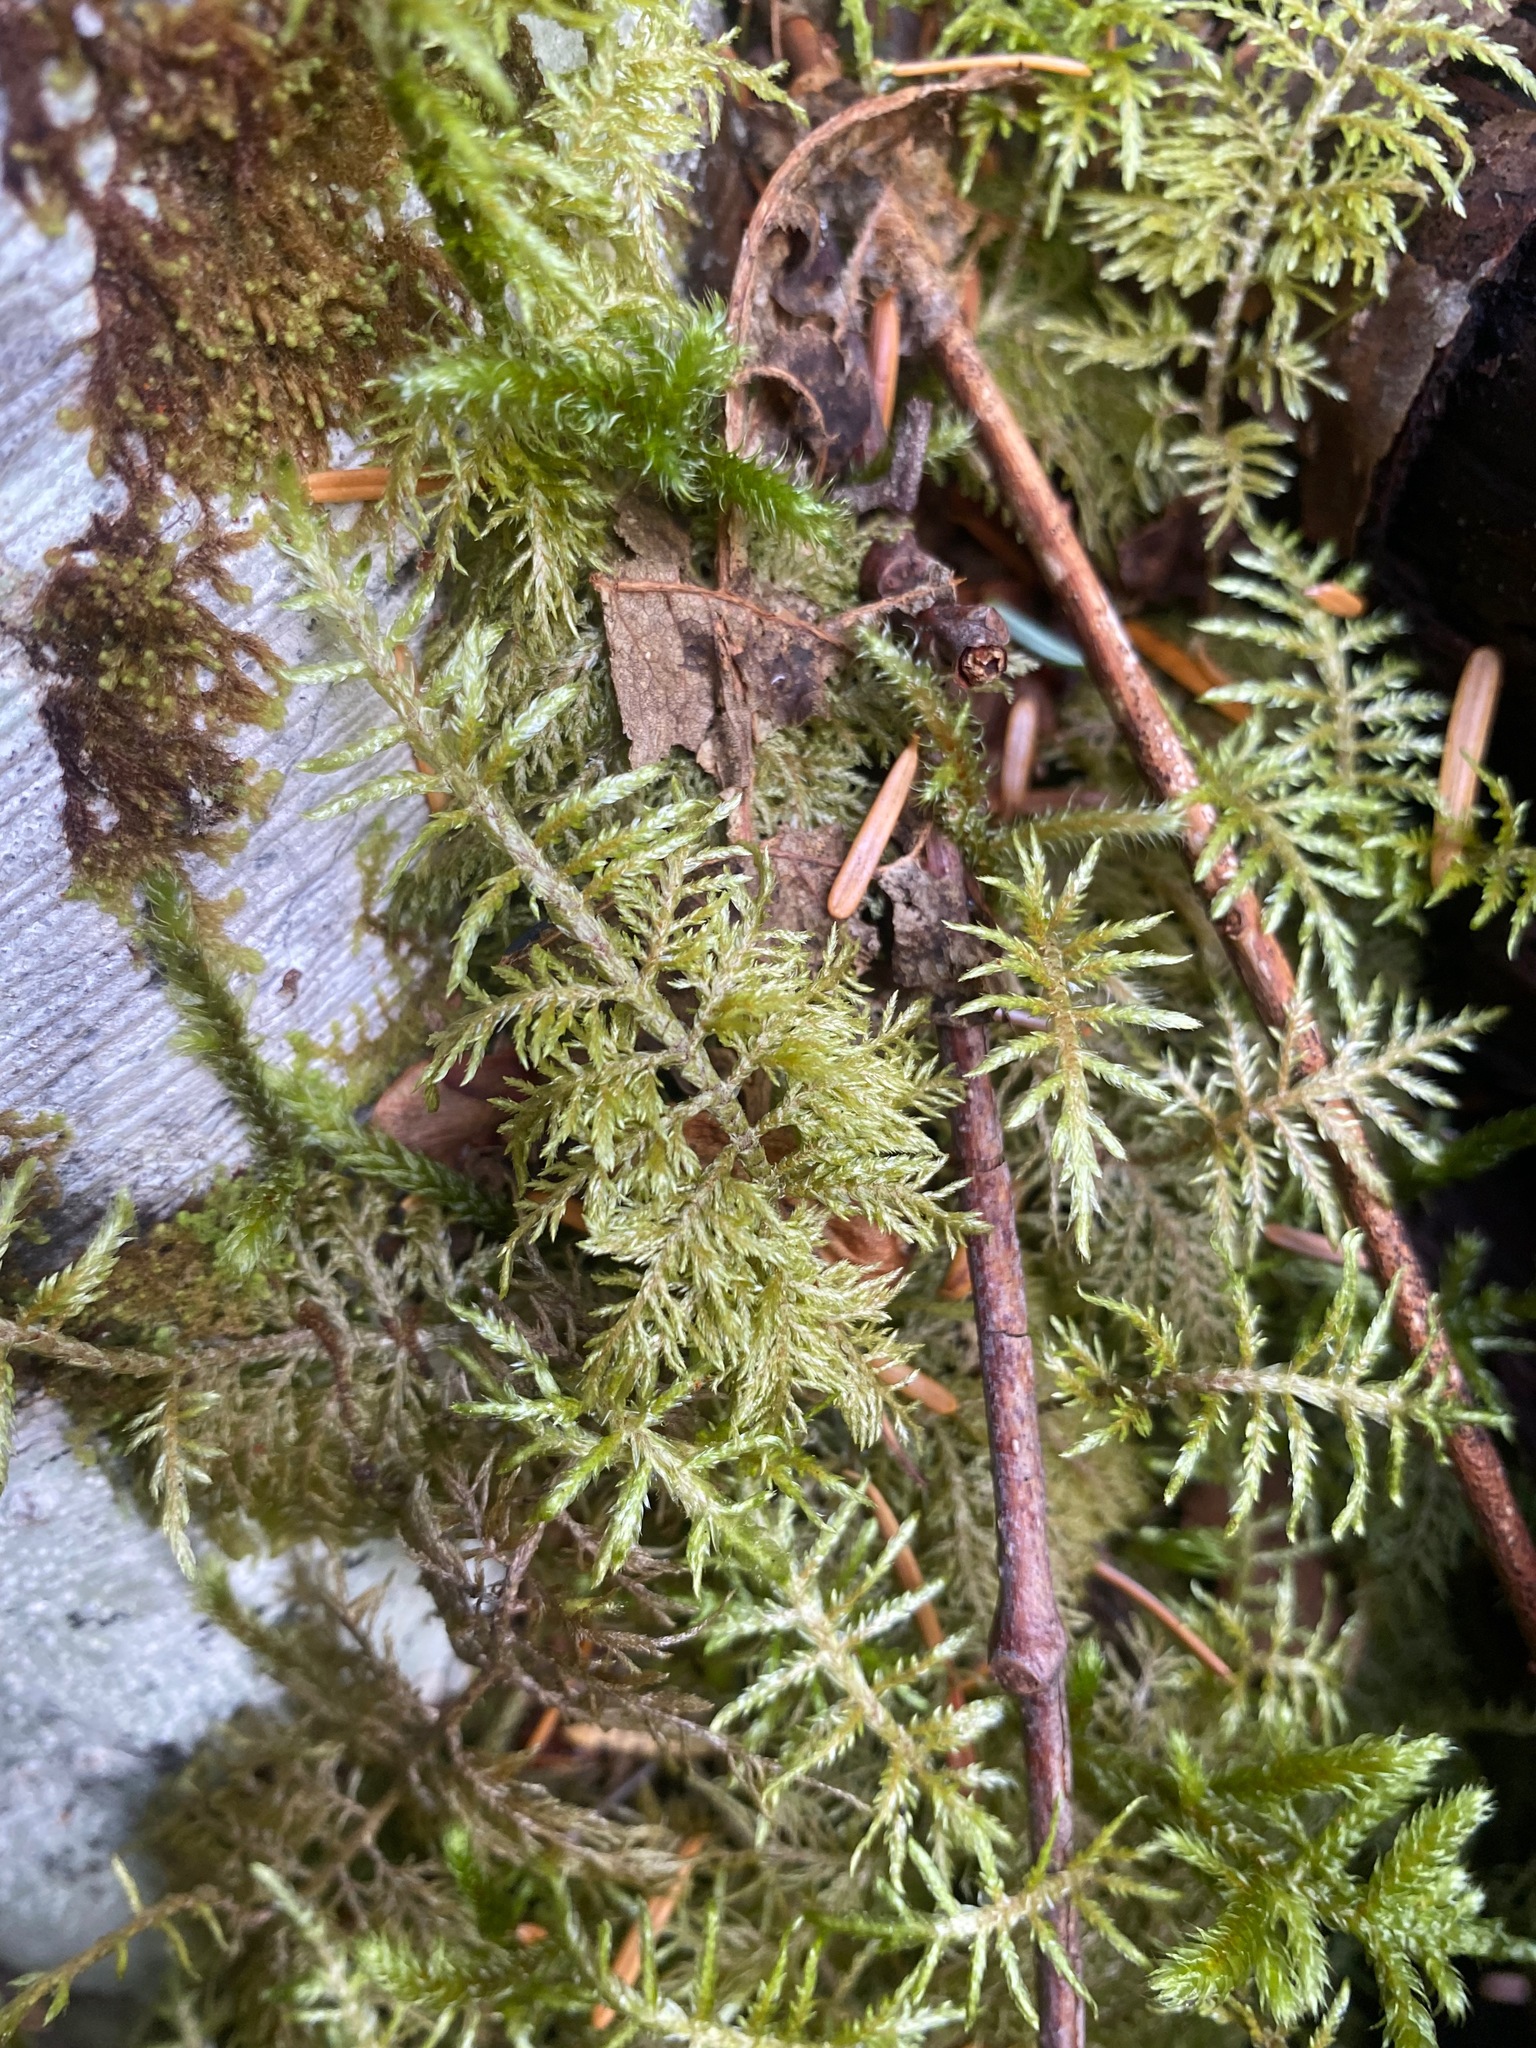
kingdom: Plantae
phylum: Bryophyta
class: Bryopsida
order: Hypnales
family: Hylocomiaceae
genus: Hylocomium
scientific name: Hylocomium splendens
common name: Stairstep moss
